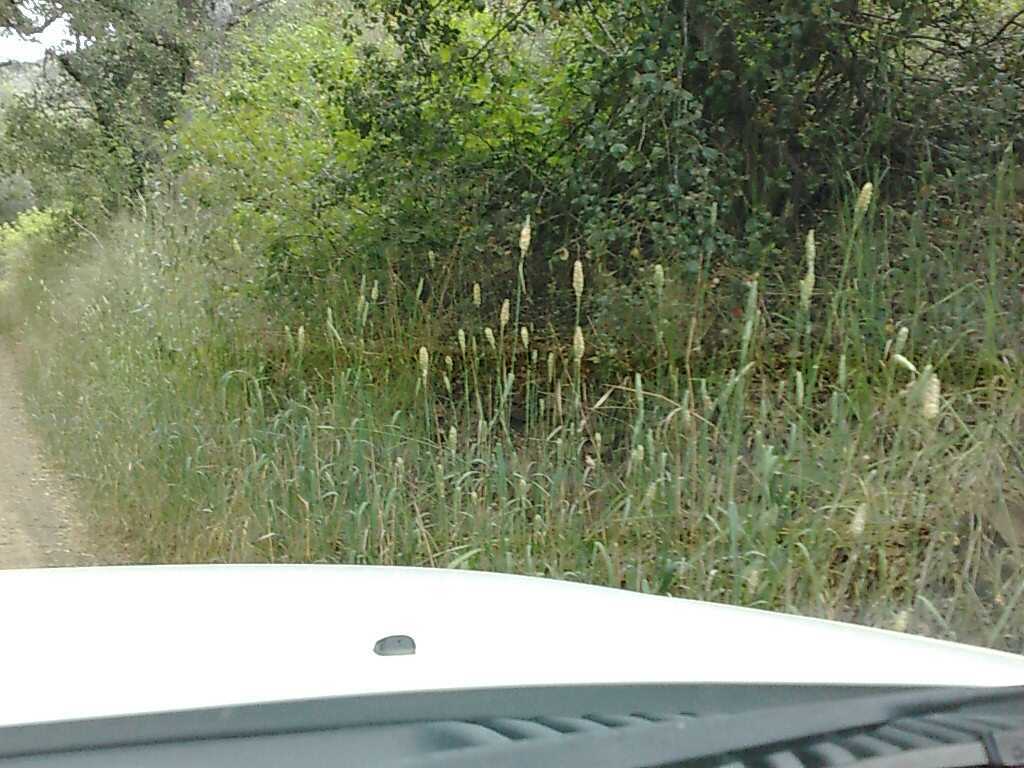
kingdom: Plantae
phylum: Tracheophyta
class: Liliopsida
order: Poales
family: Poaceae
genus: Phalaris
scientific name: Phalaris aquatica
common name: Bulbous canary-grass
